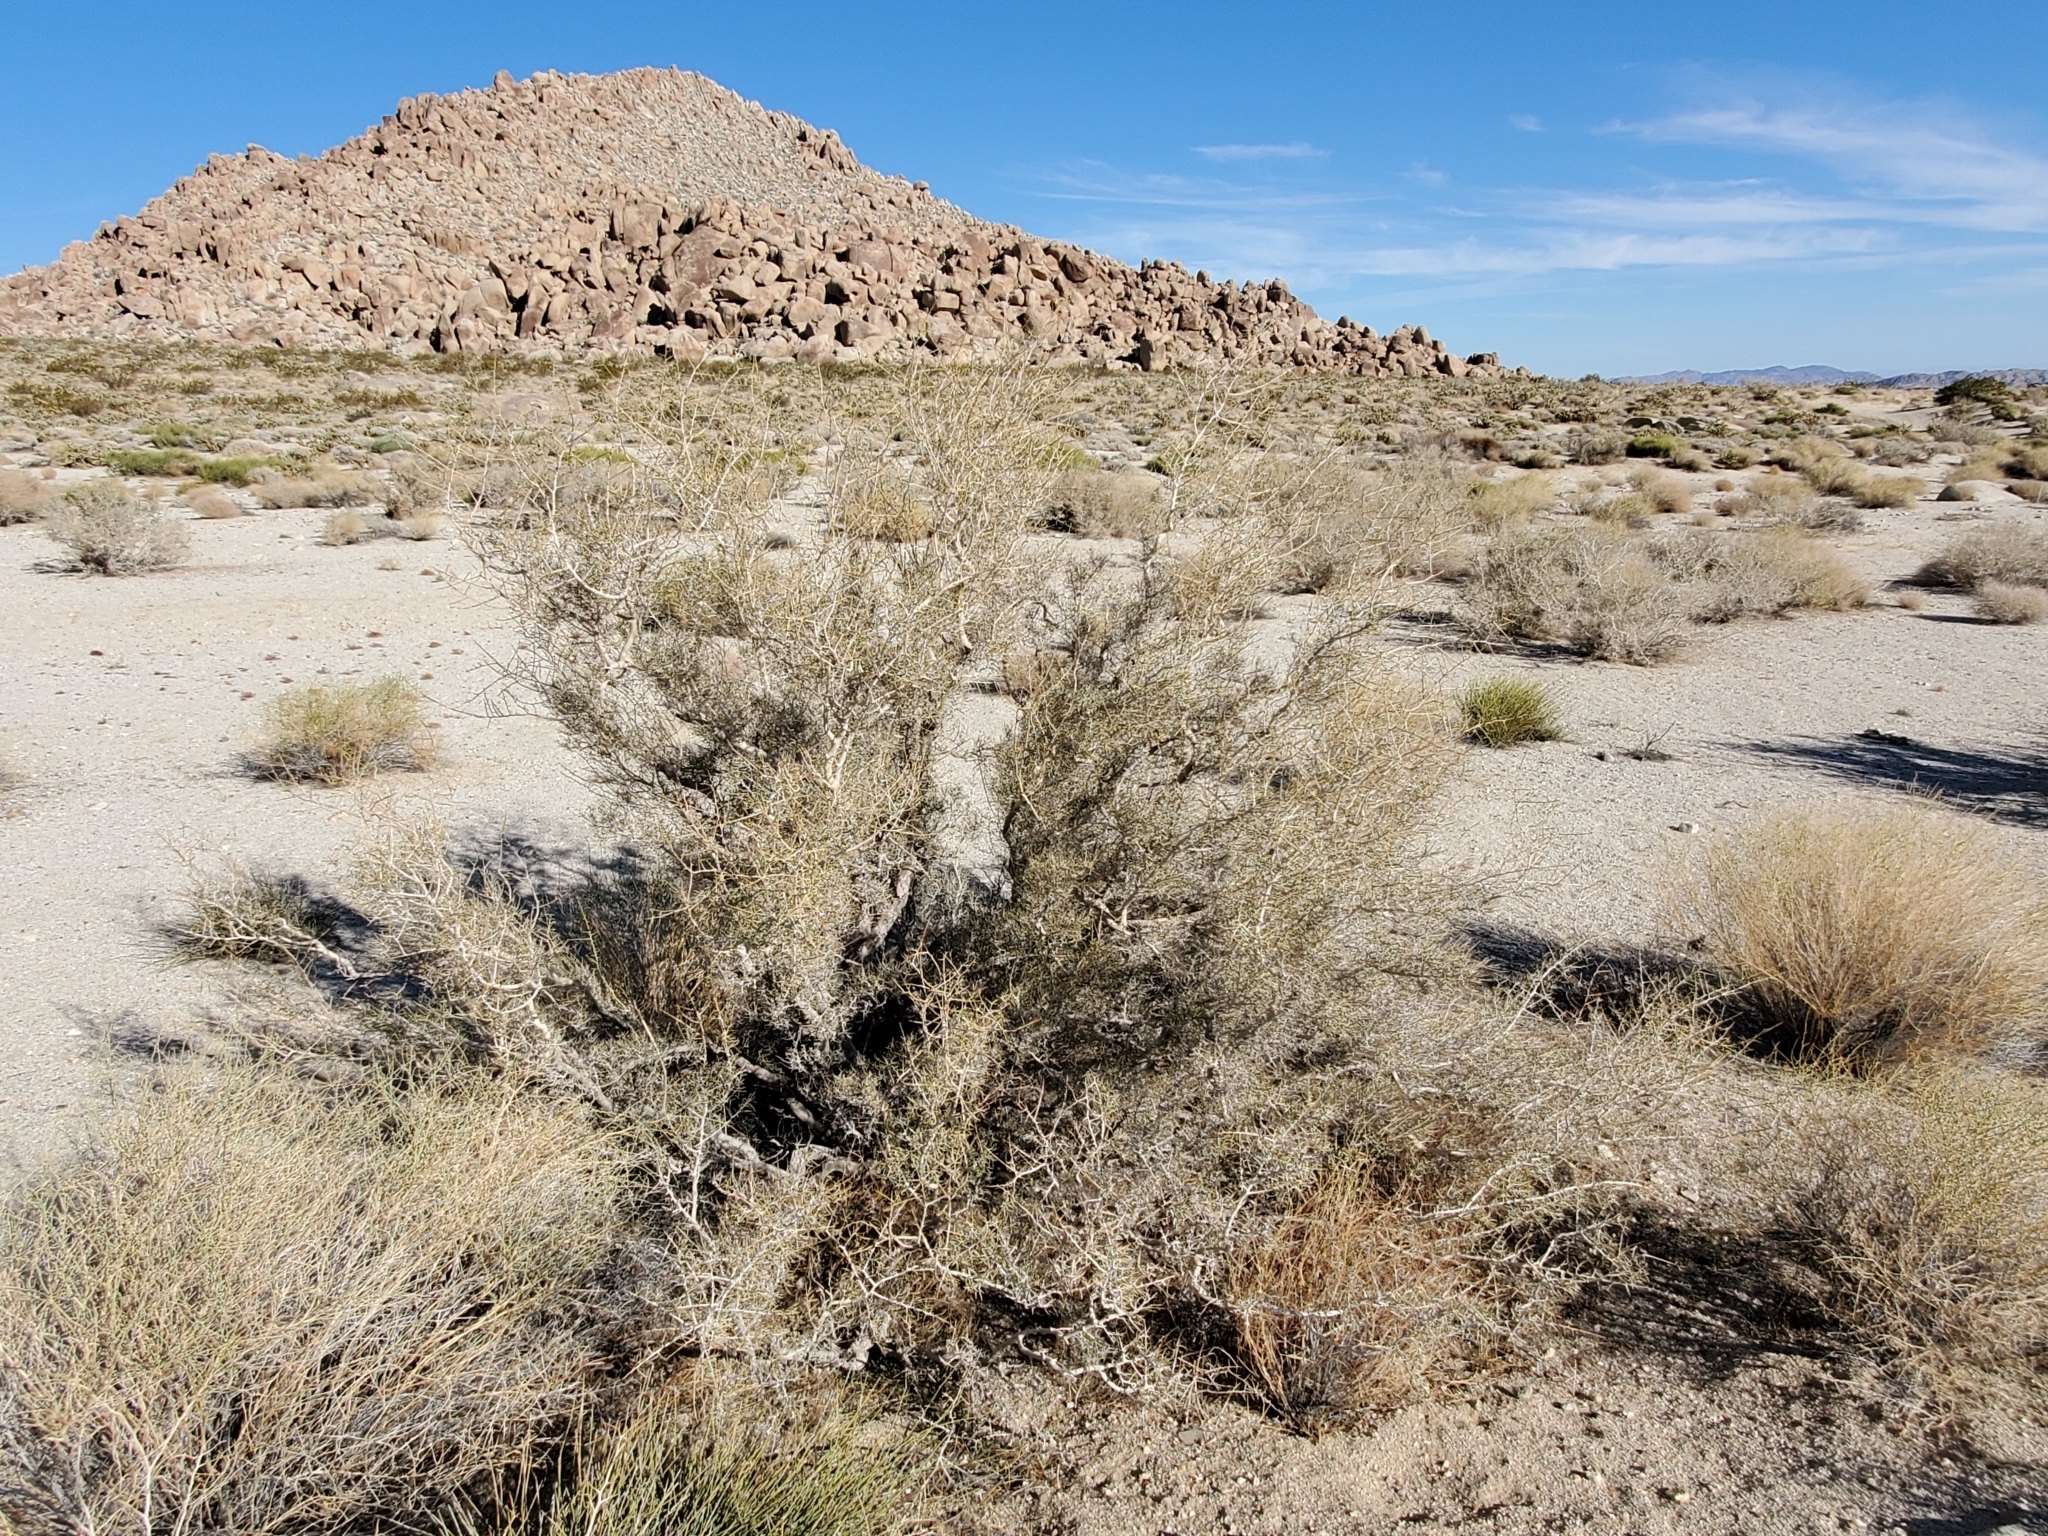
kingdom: Plantae
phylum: Tracheophyta
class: Magnoliopsida
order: Fabales
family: Fabaceae
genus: Psorothamnus
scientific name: Psorothamnus schottii
